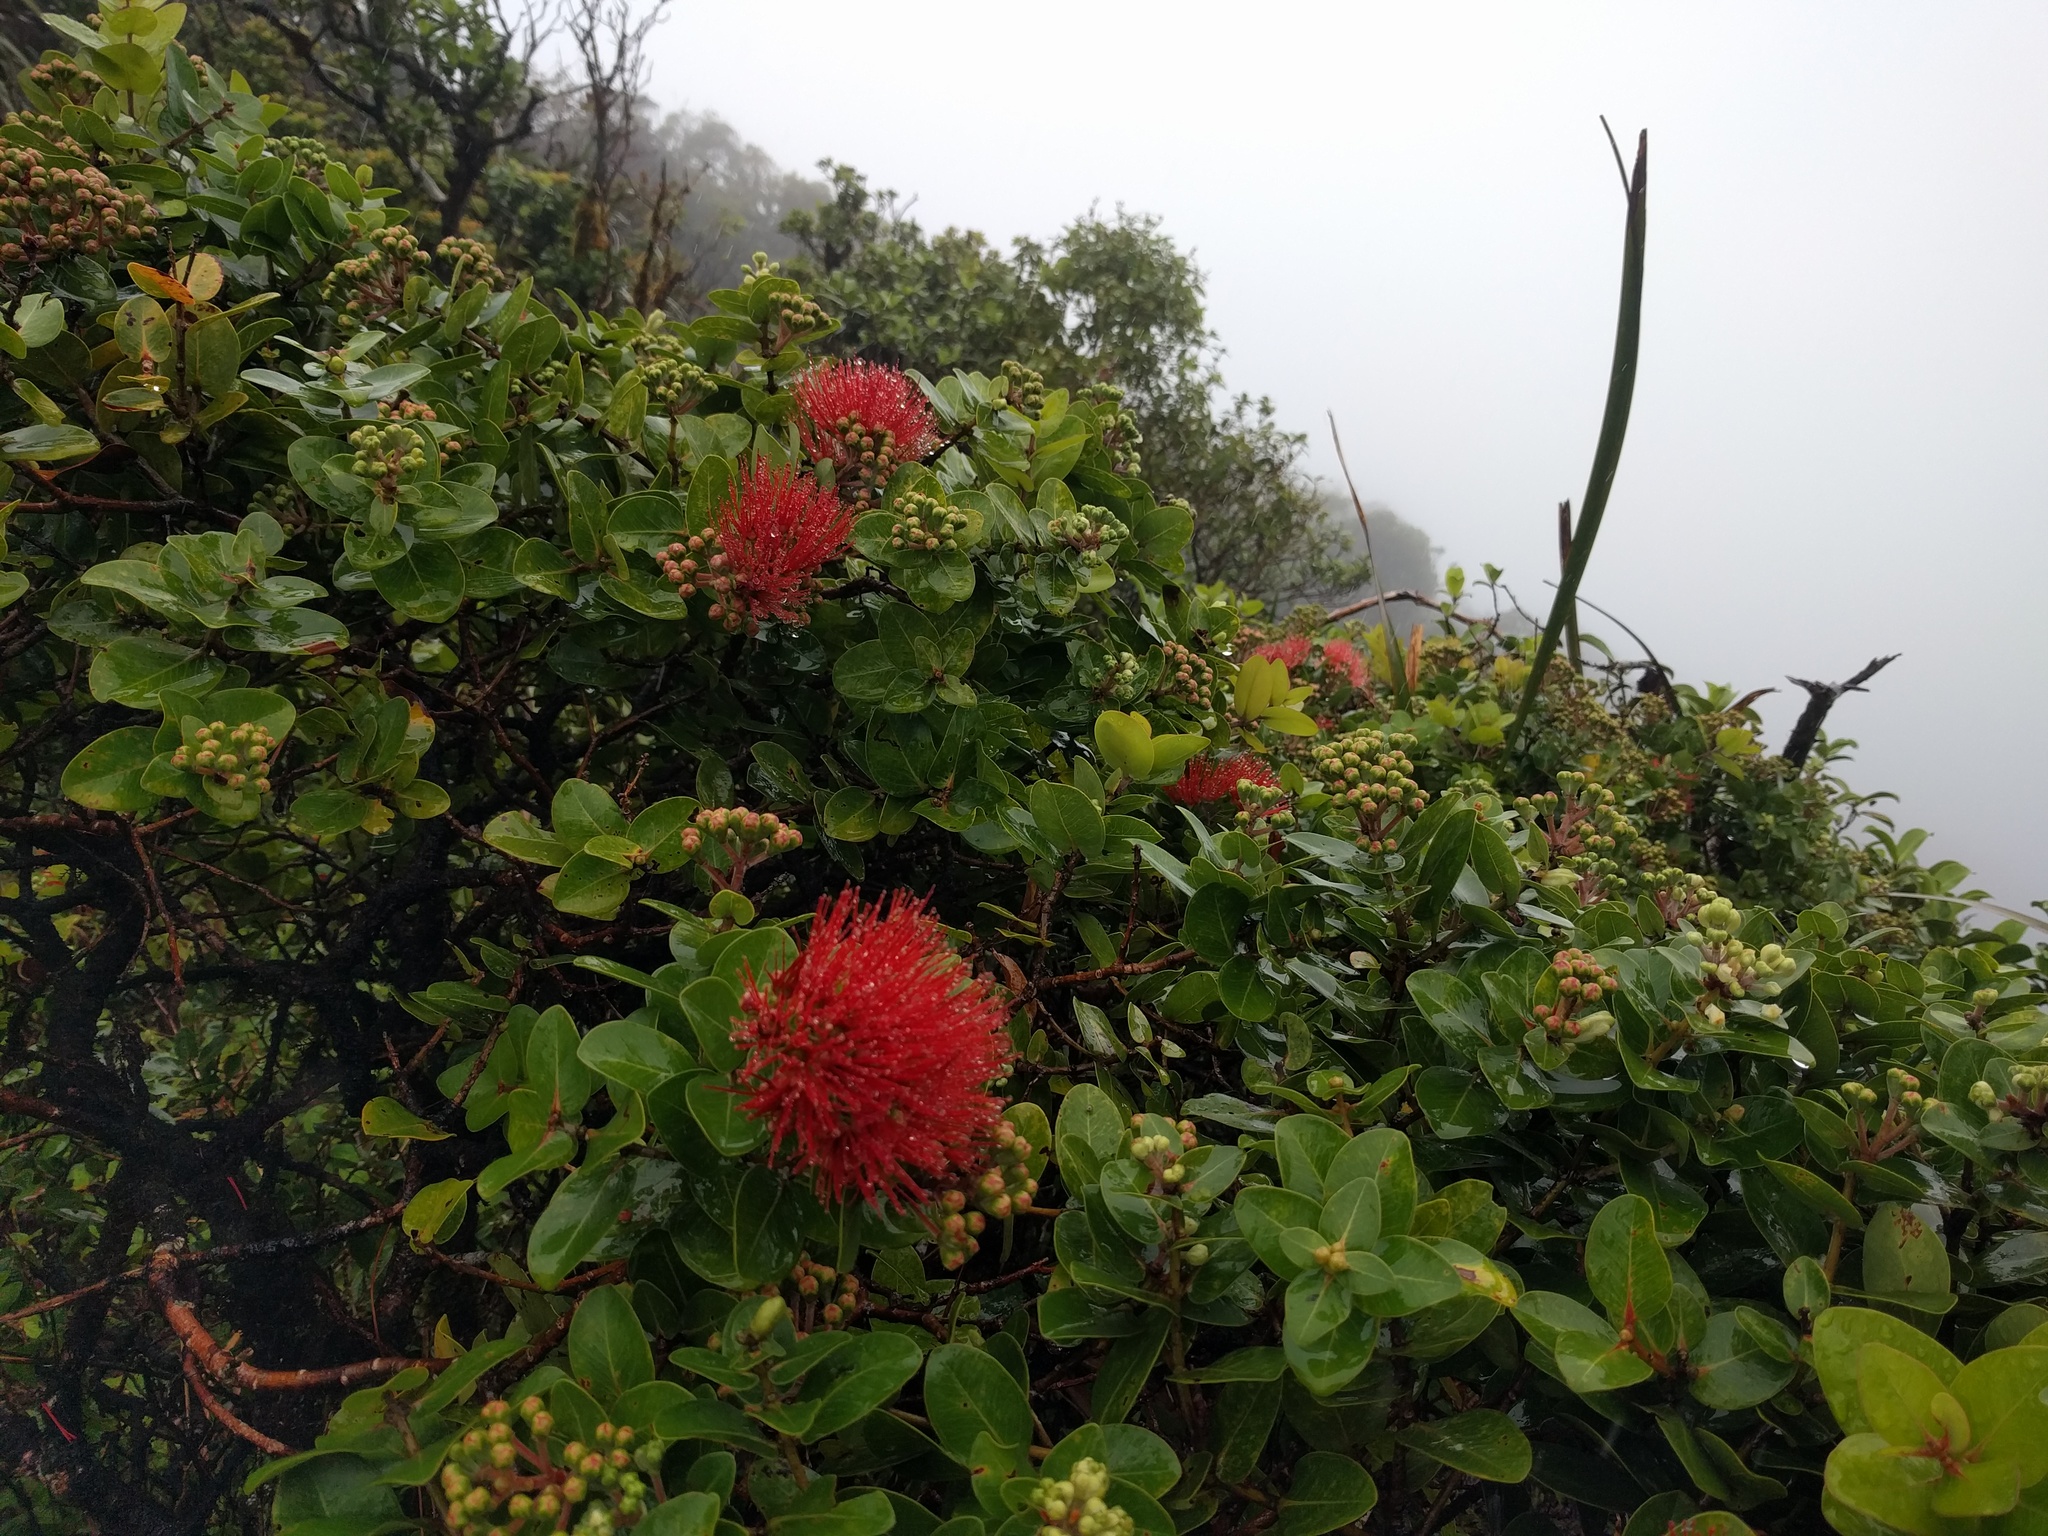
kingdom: Plantae
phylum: Tracheophyta
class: Magnoliopsida
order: Myrtales
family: Myrtaceae
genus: Metrosideros
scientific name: Metrosideros polymorpha
